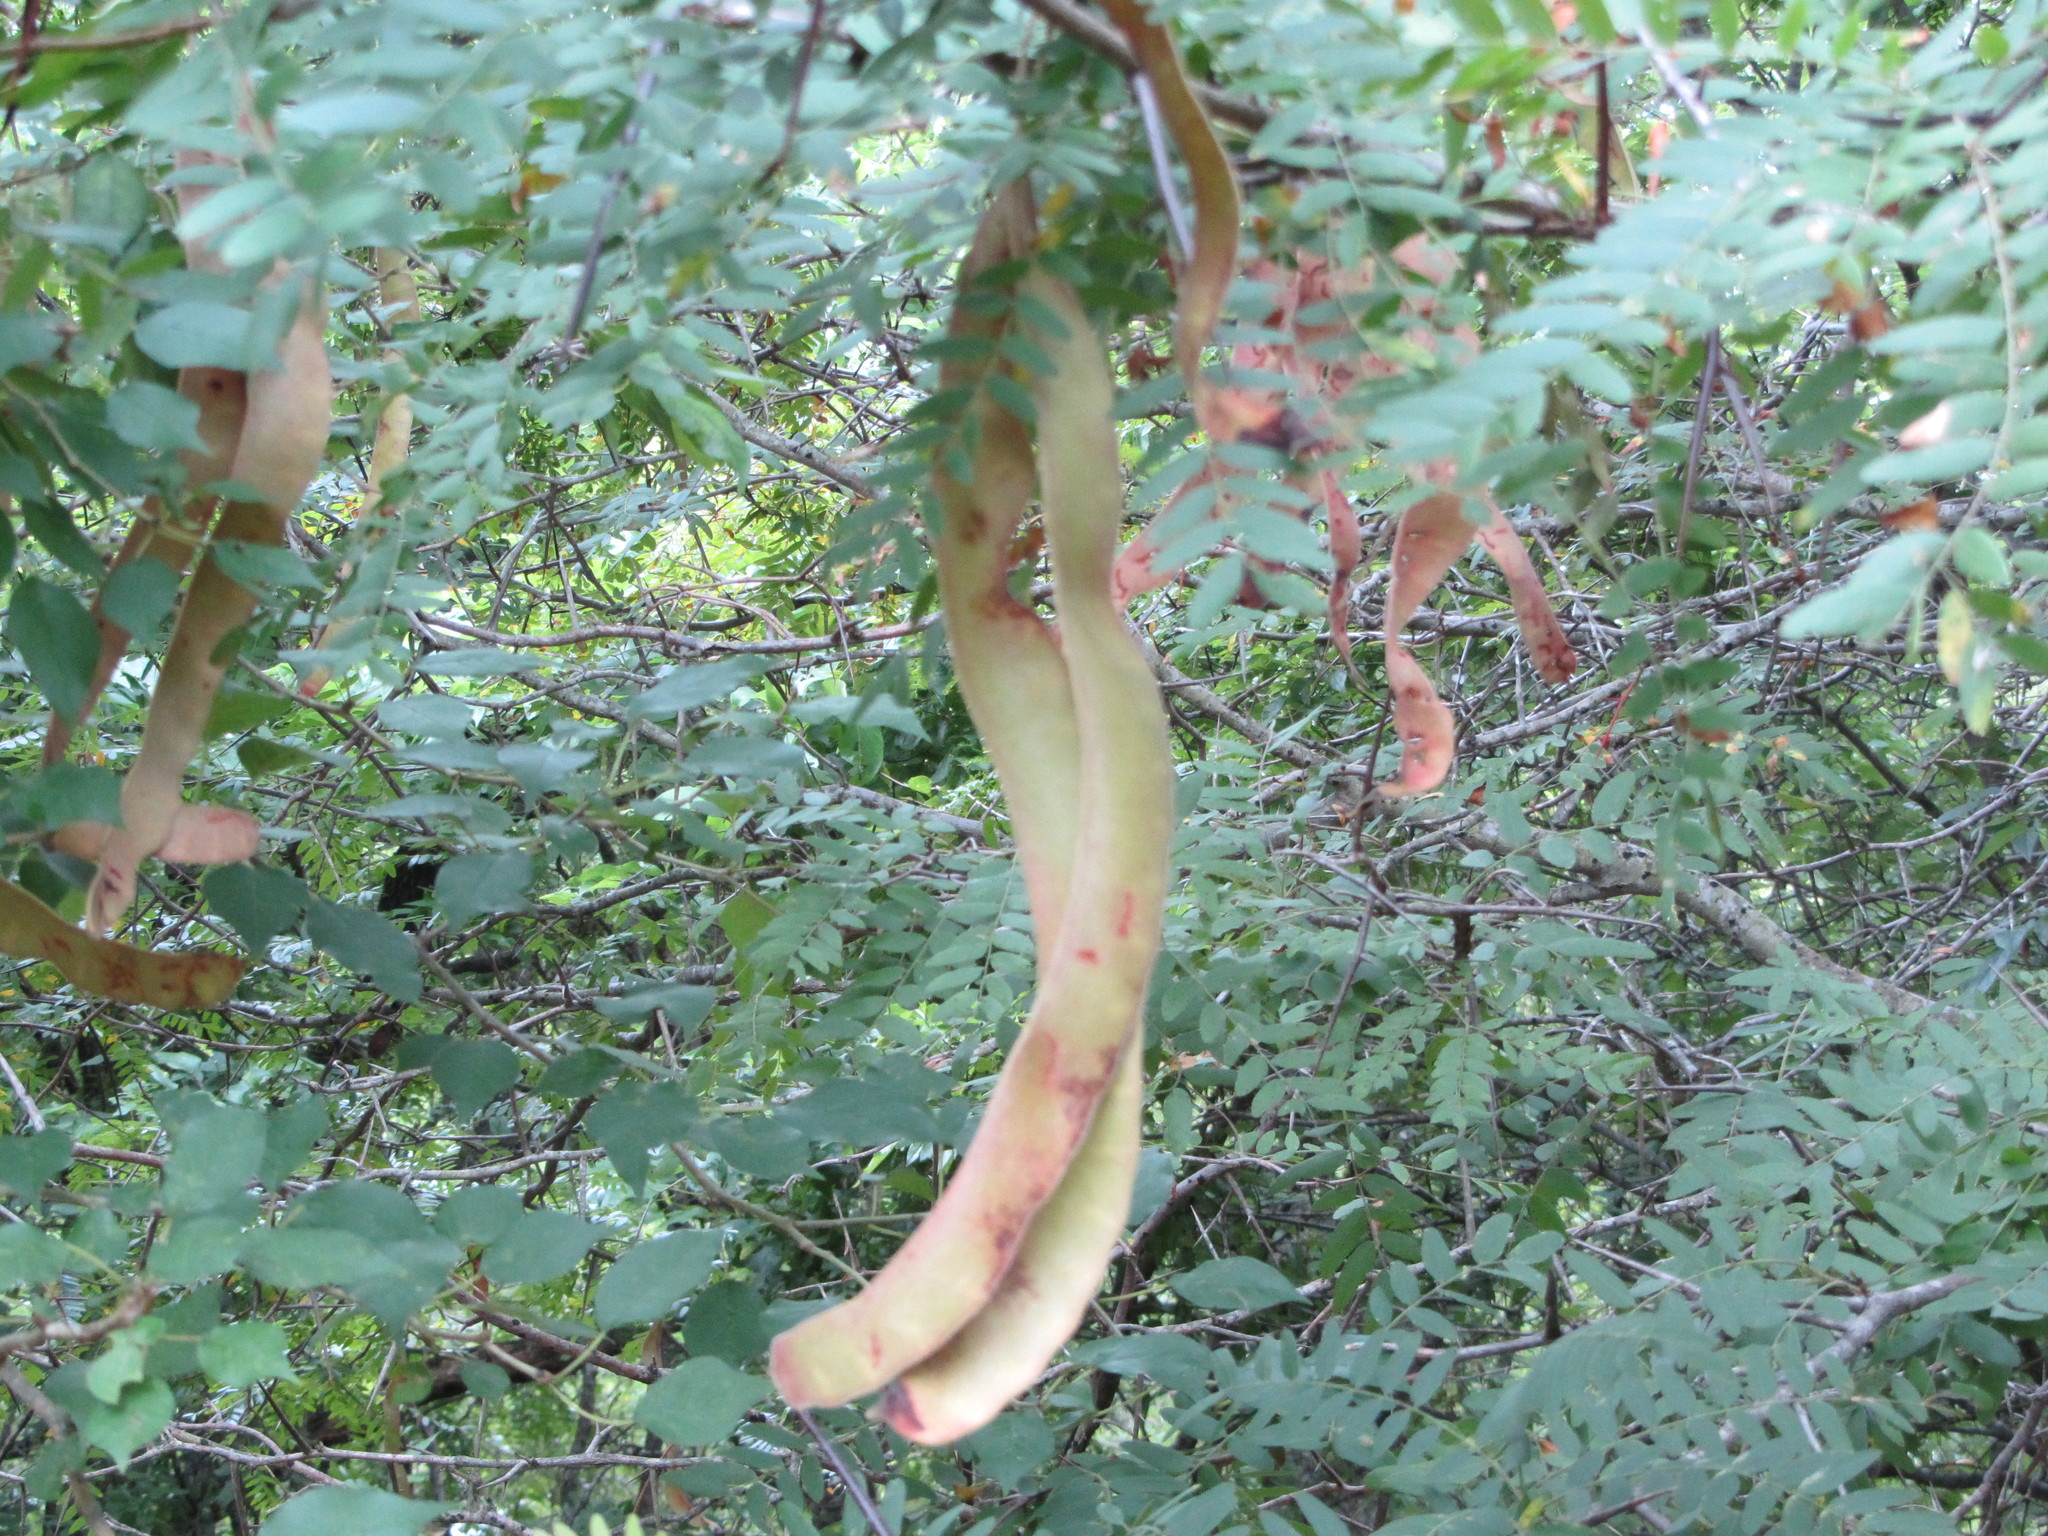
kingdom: Plantae
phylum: Tracheophyta
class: Magnoliopsida
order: Fabales
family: Fabaceae
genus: Gleditsia
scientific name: Gleditsia triacanthos
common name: Common honeylocust
